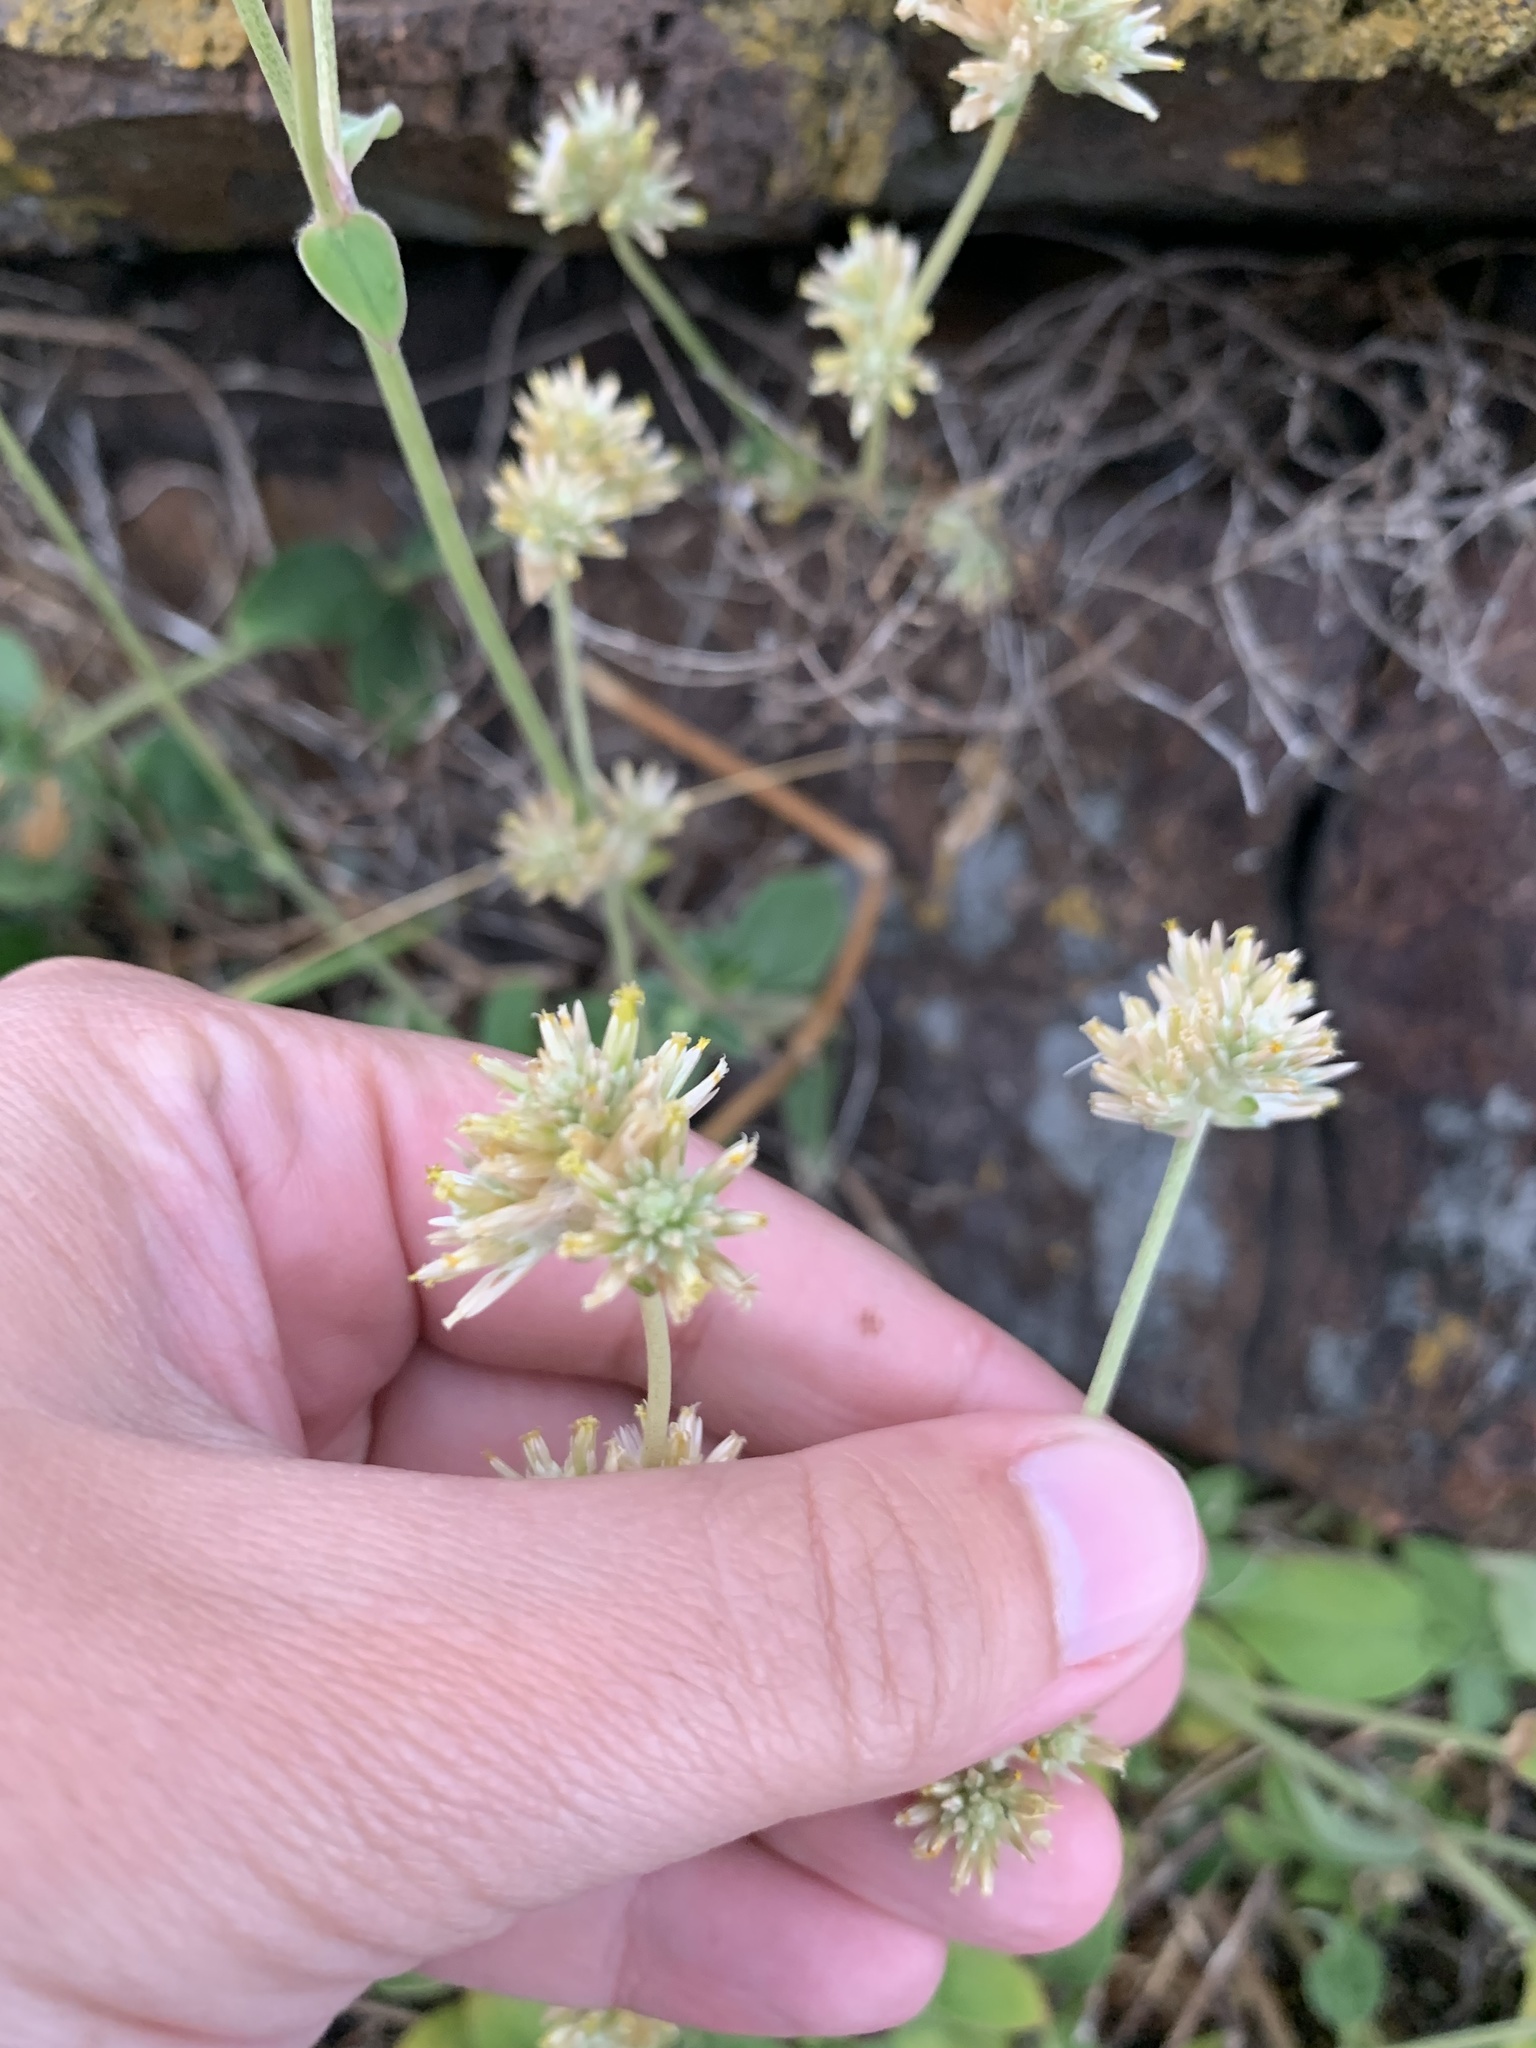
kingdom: Plantae
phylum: Tracheophyta
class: Magnoliopsida
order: Caryophyllales
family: Amaranthaceae
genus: Gomphrena
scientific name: Gomphrena perennis
